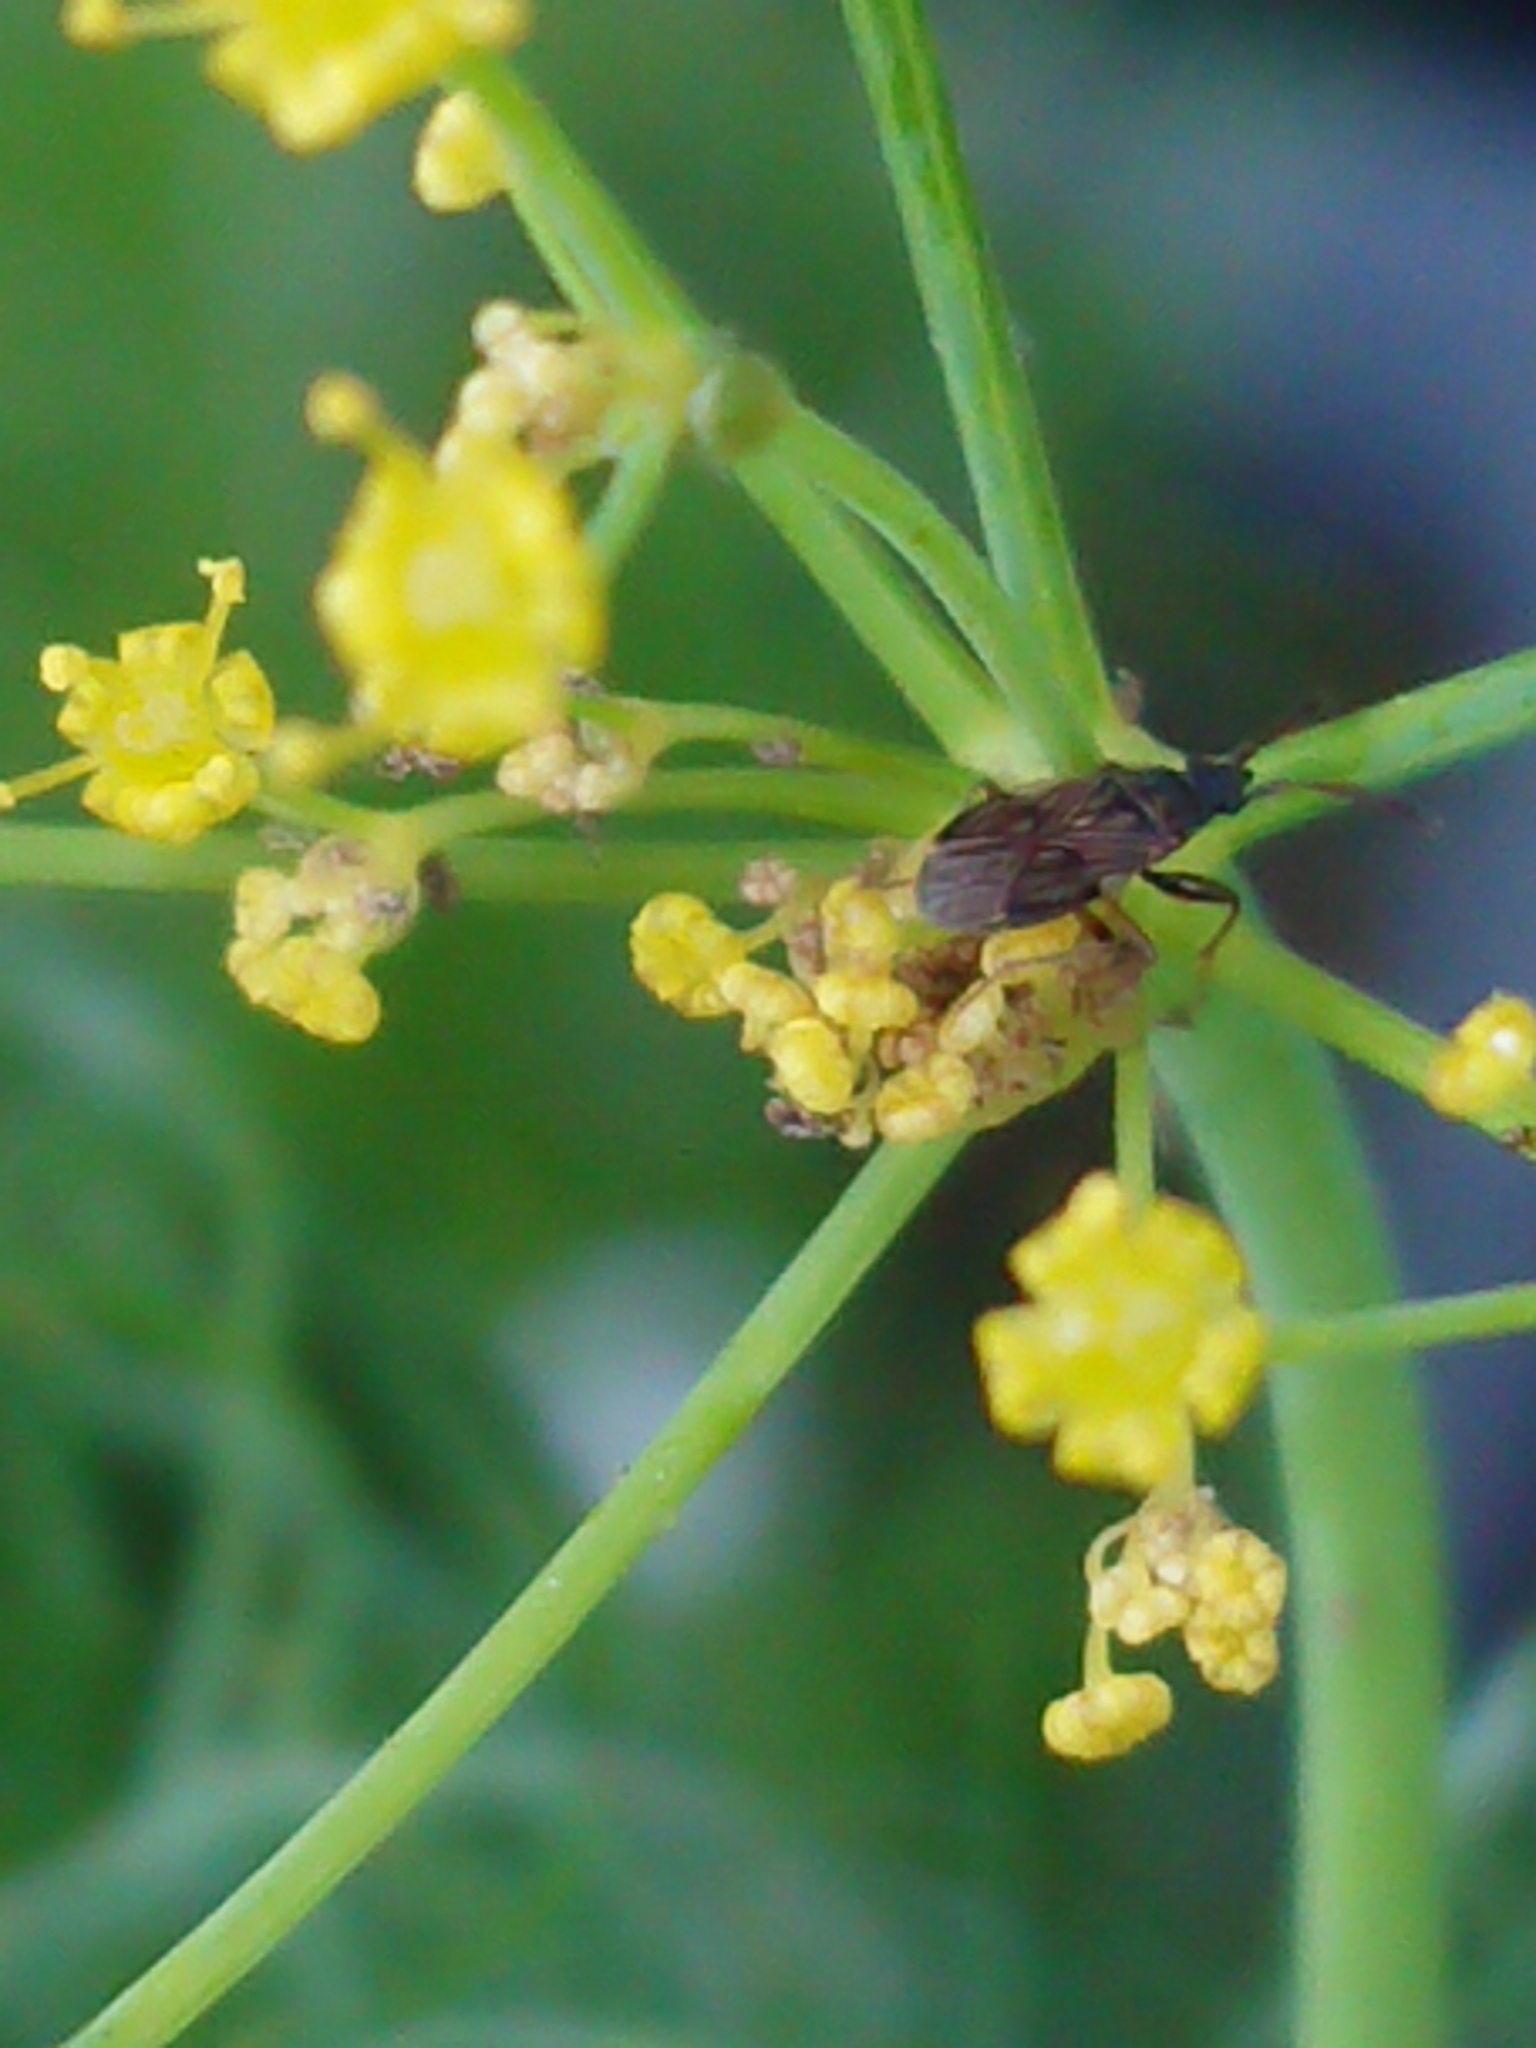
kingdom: Animalia
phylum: Arthropoda
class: Insecta
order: Hemiptera
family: Rhyparochromidae
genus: Brentiscerus
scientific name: Brentiscerus putoni
